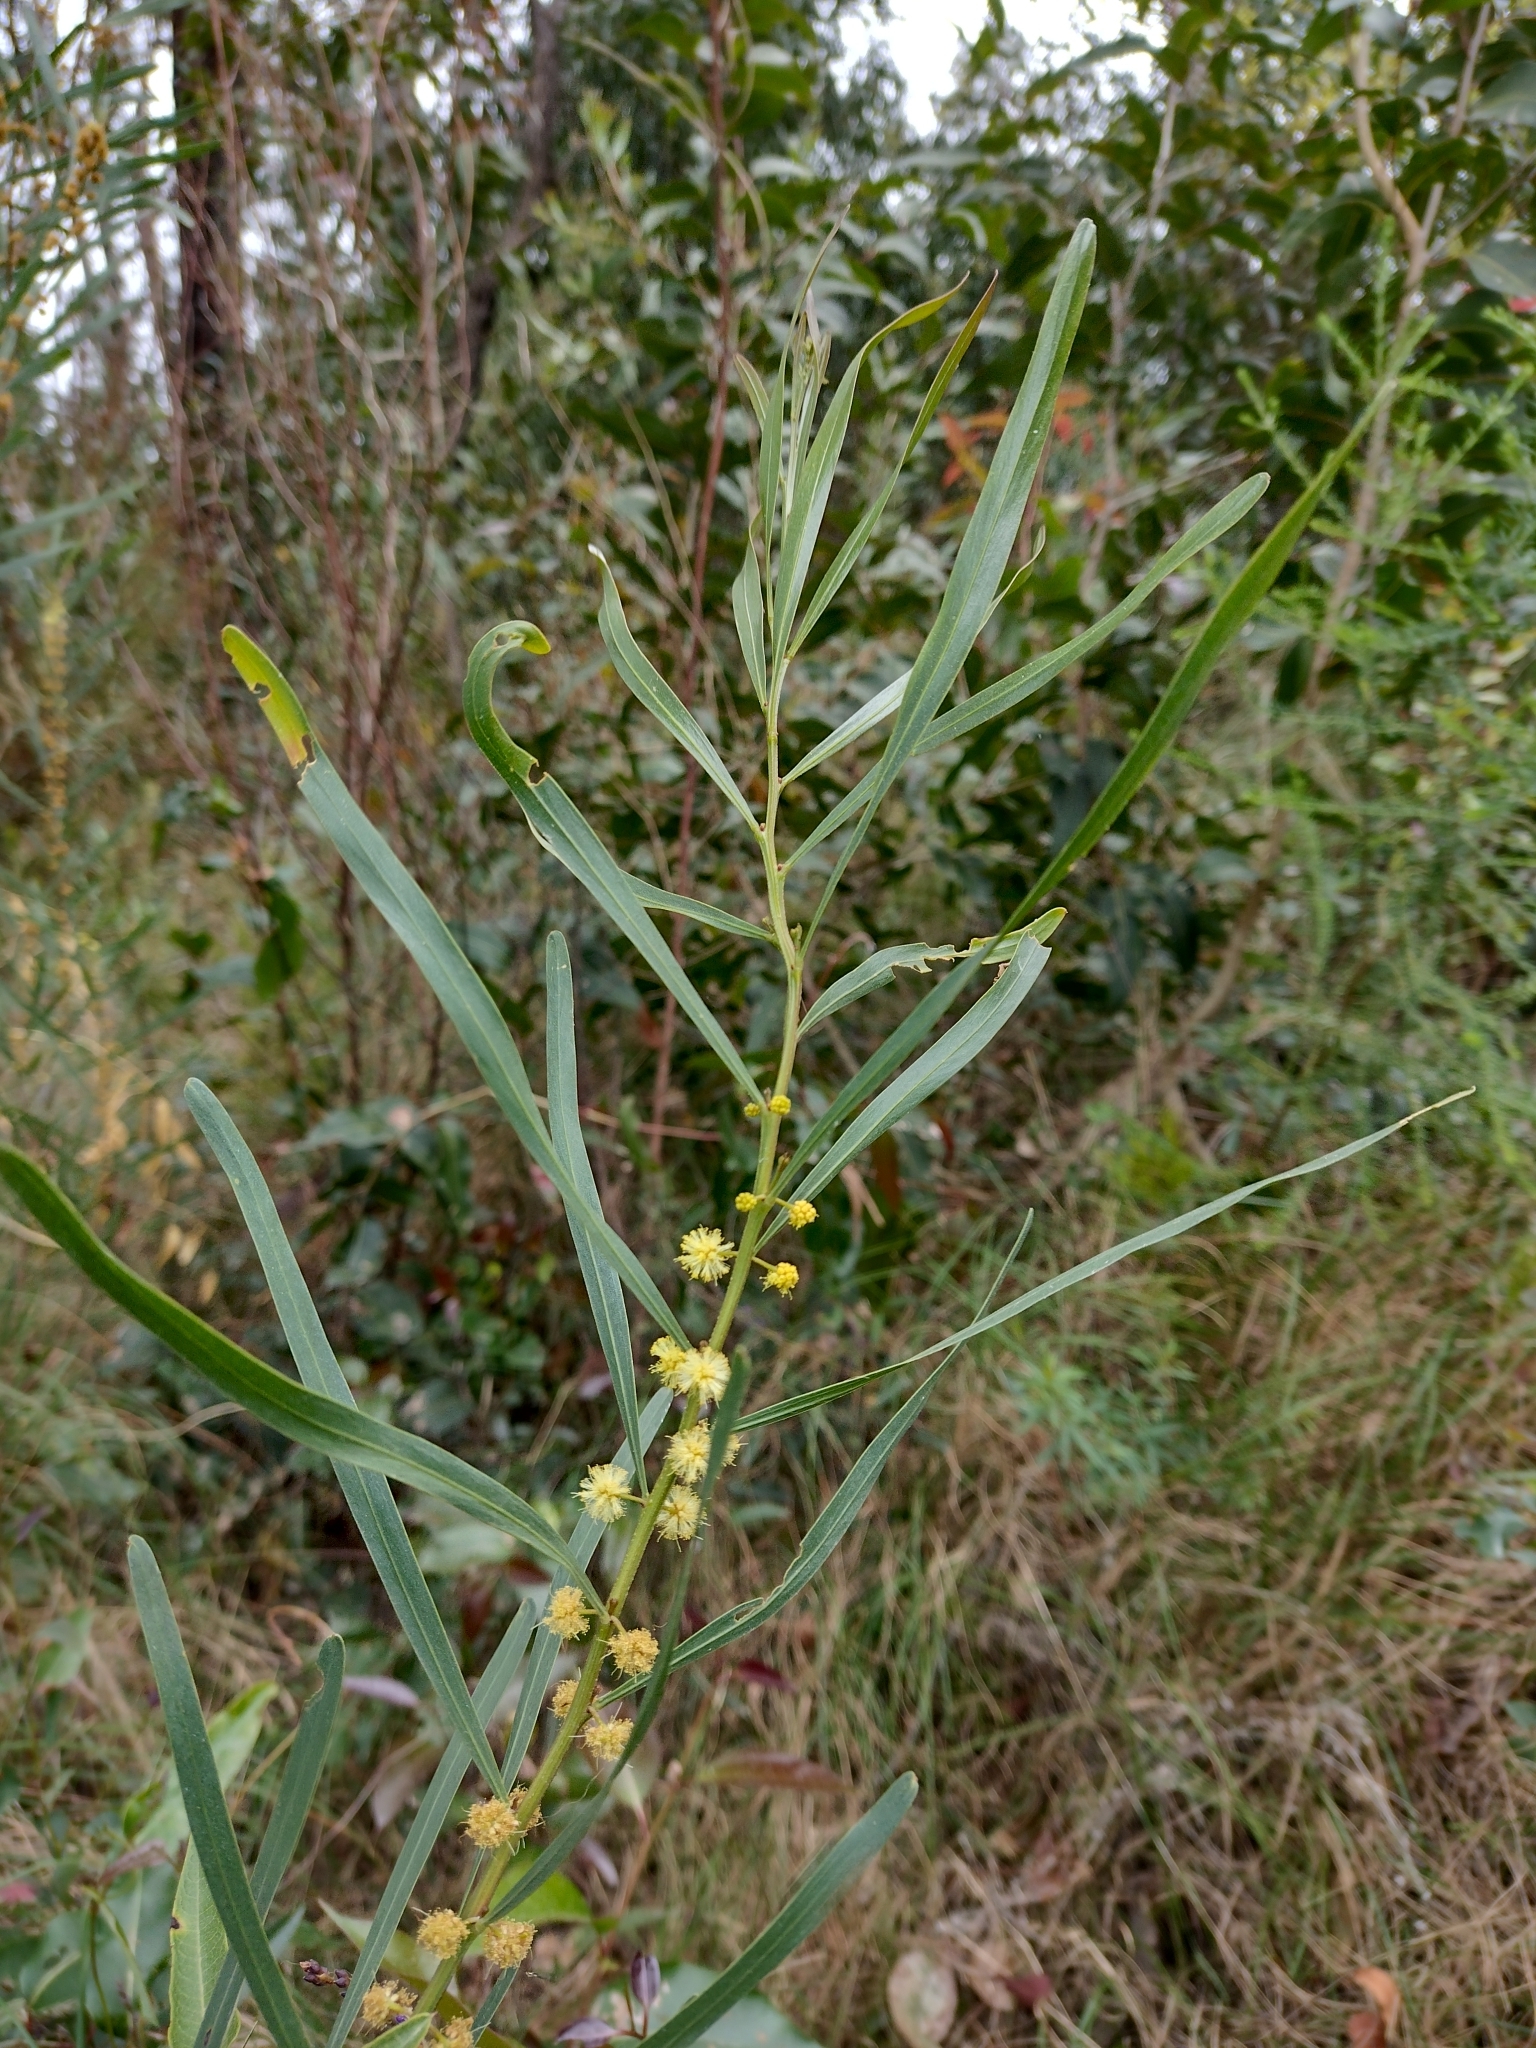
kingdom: Plantae
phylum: Tracheophyta
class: Magnoliopsida
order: Fabales
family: Fabaceae
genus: Acacia
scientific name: Acacia stricta
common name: Hop wattle
